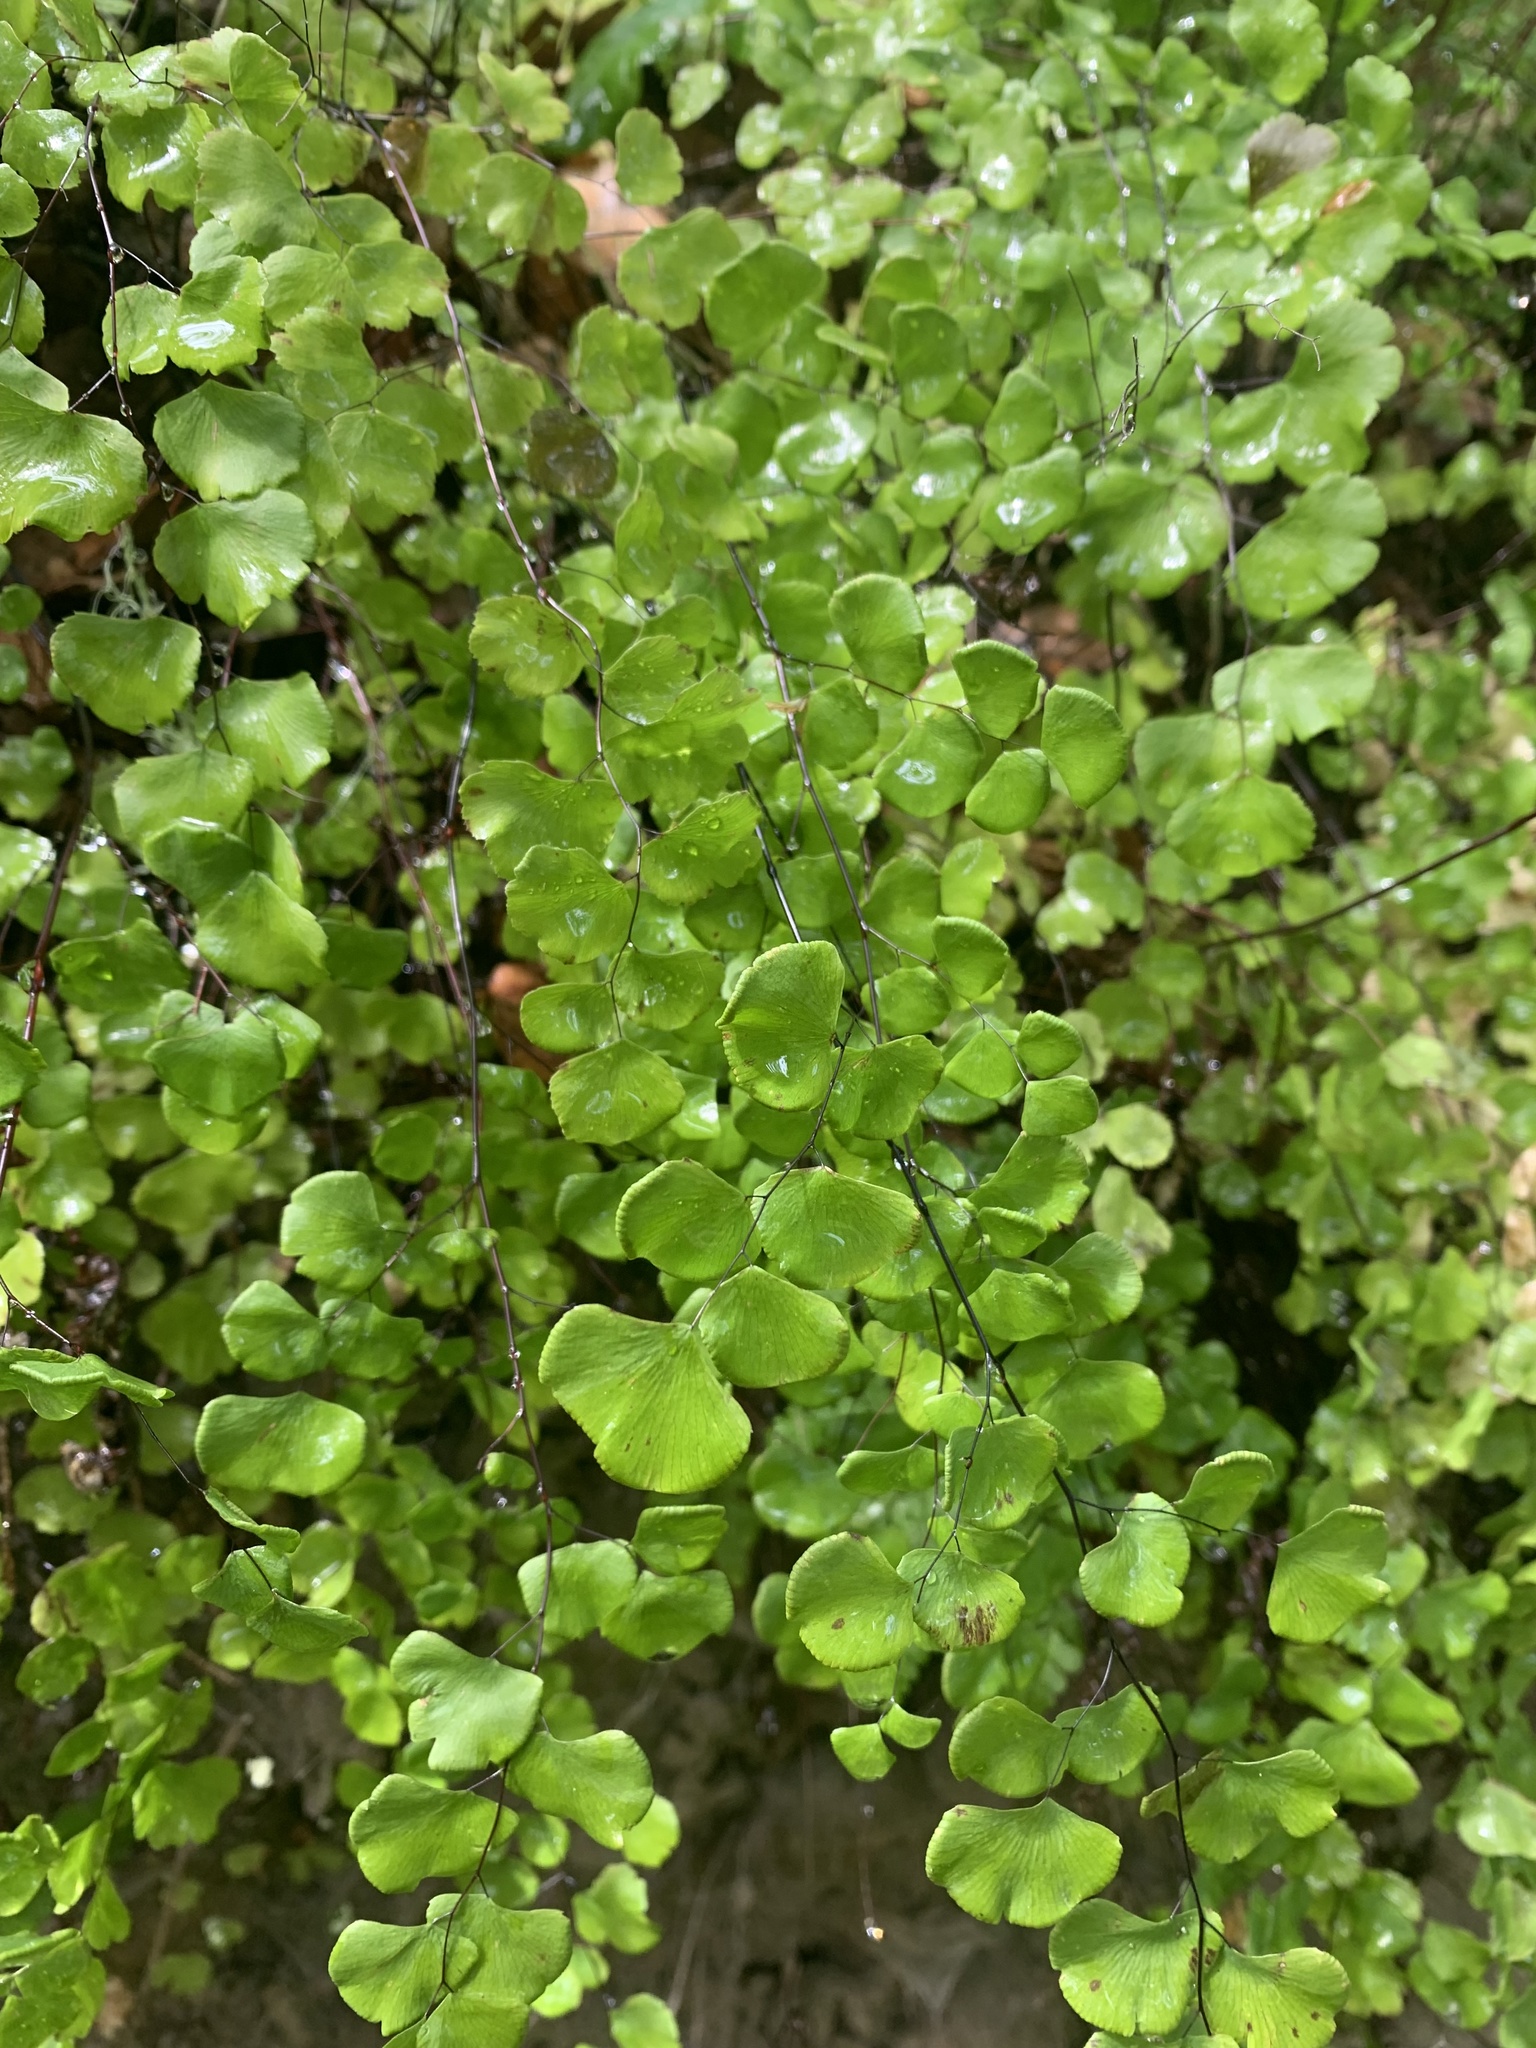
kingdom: Plantae
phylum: Tracheophyta
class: Polypodiopsida
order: Polypodiales
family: Pteridaceae
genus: Adiantum
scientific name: Adiantum jordanii
